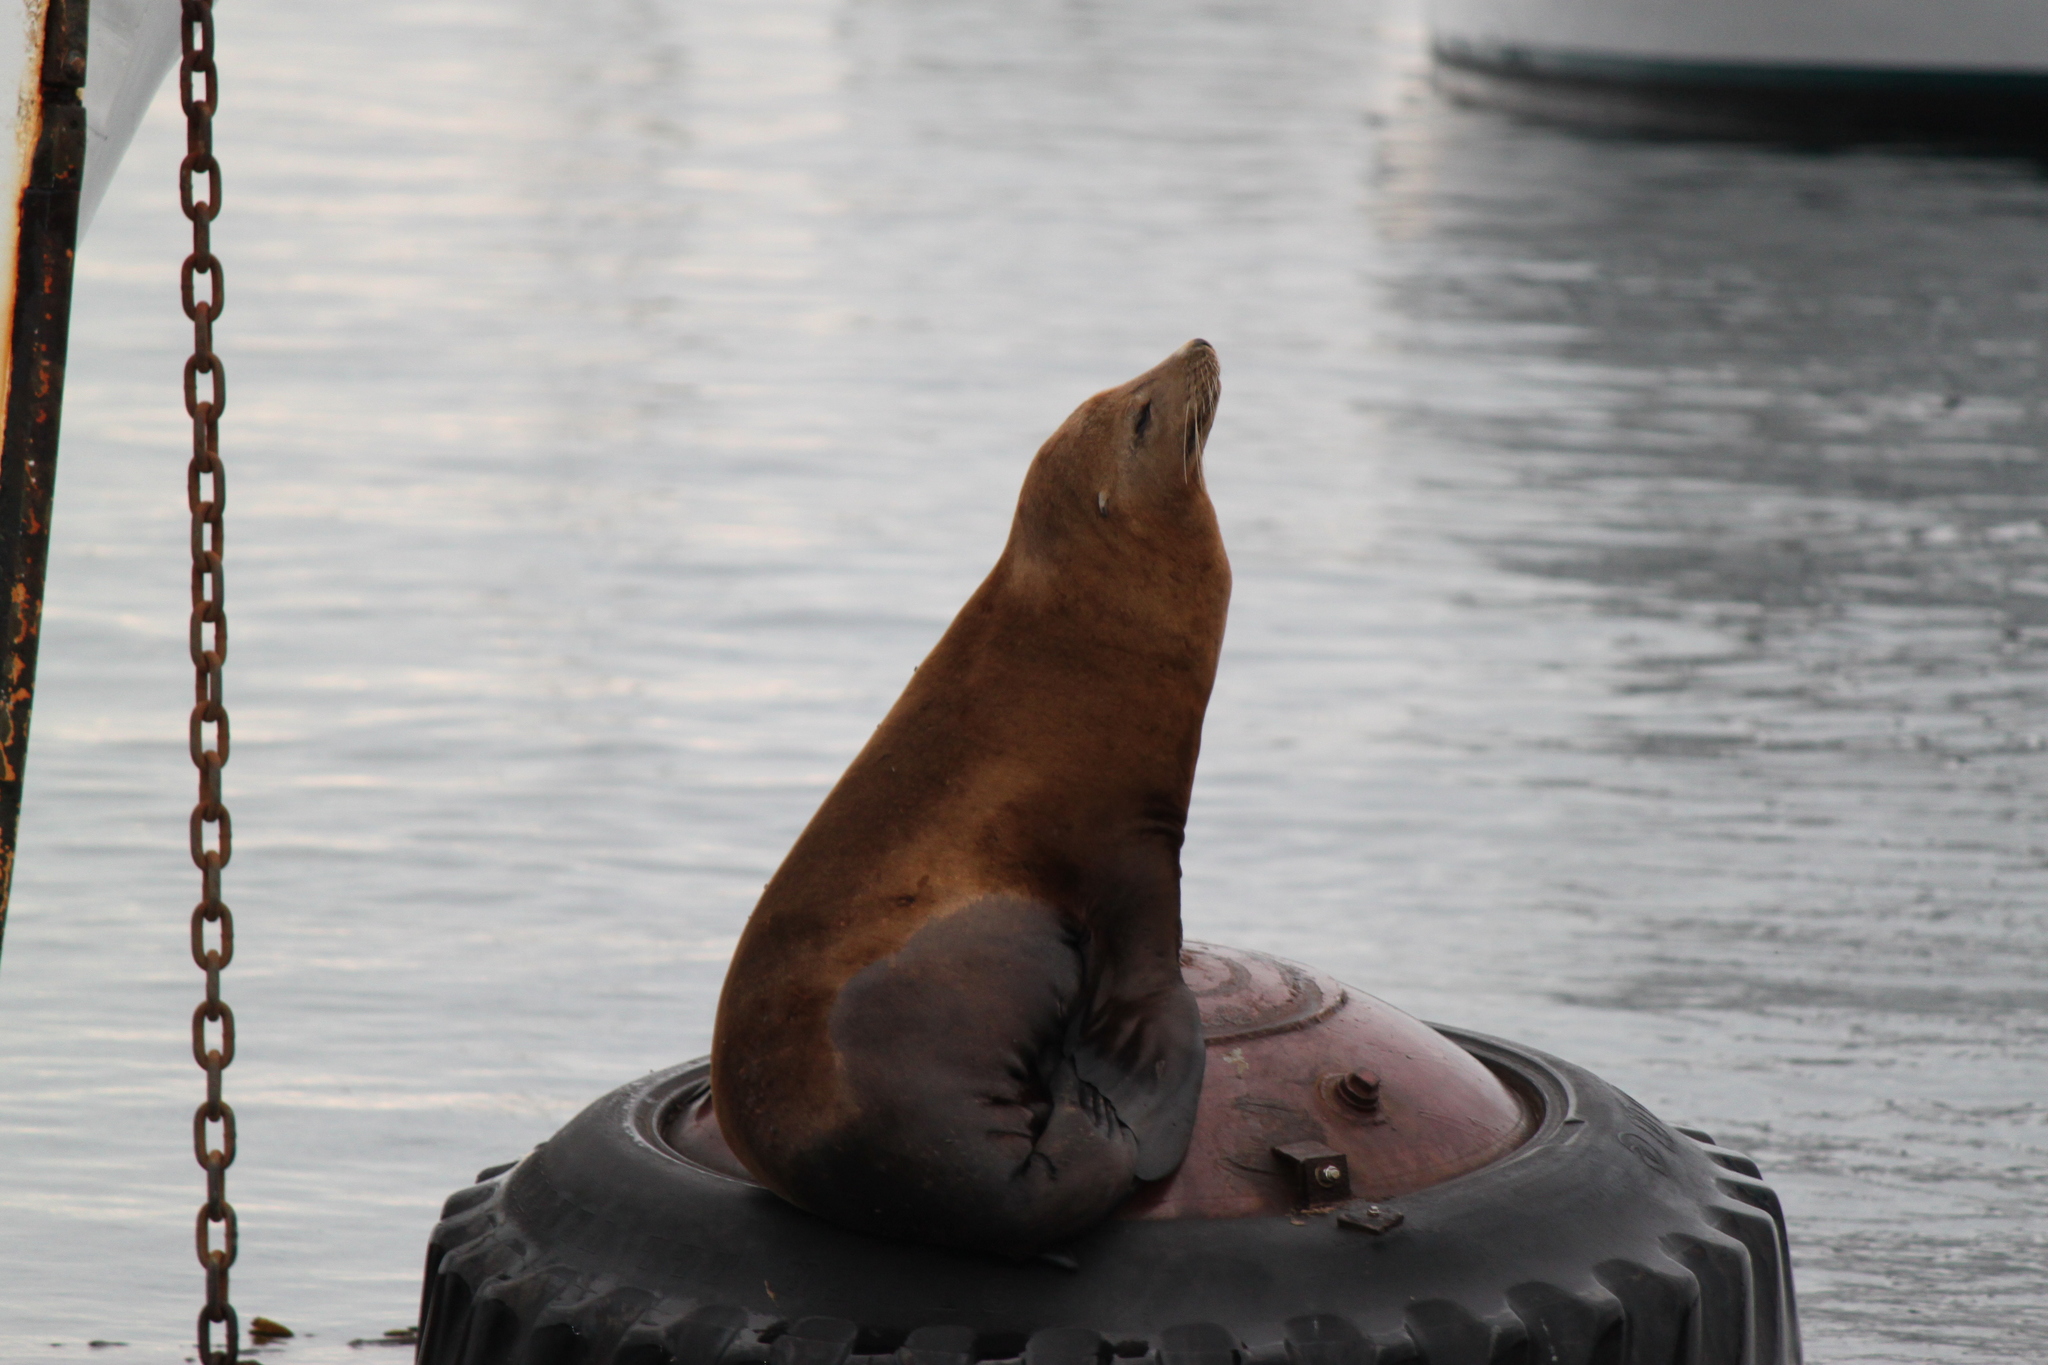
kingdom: Animalia
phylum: Chordata
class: Mammalia
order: Carnivora
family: Otariidae
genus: Zalophus
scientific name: Zalophus californianus
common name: California sea lion
